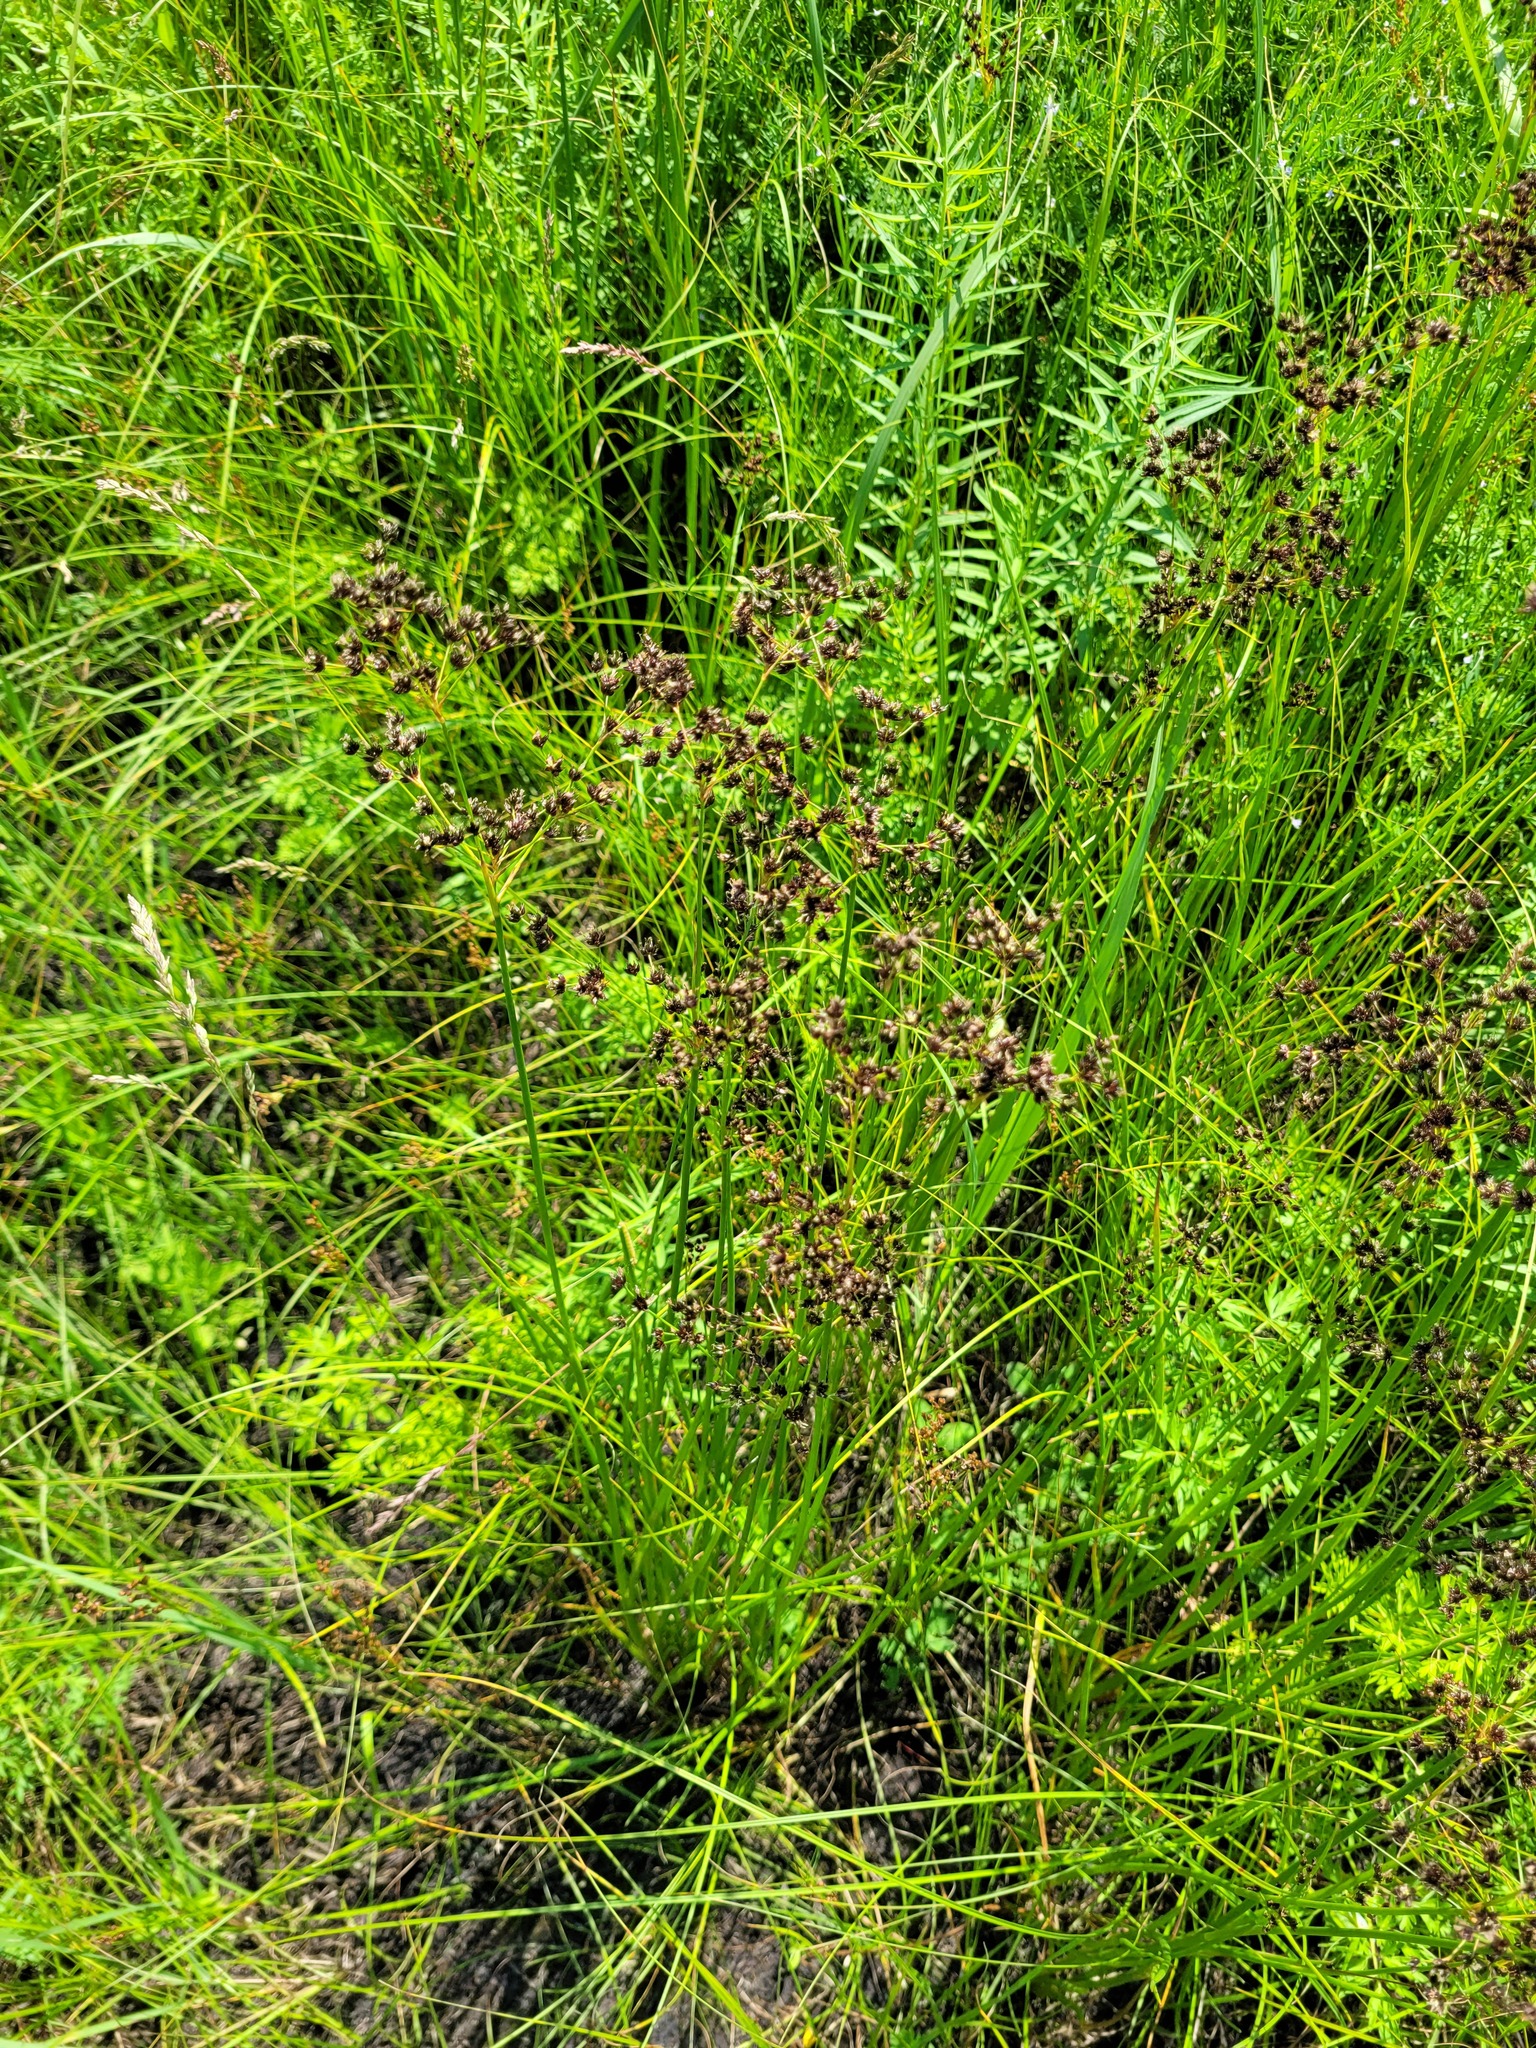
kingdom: Plantae
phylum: Tracheophyta
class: Liliopsida
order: Poales
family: Juncaceae
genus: Juncus
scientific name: Juncus atratus
